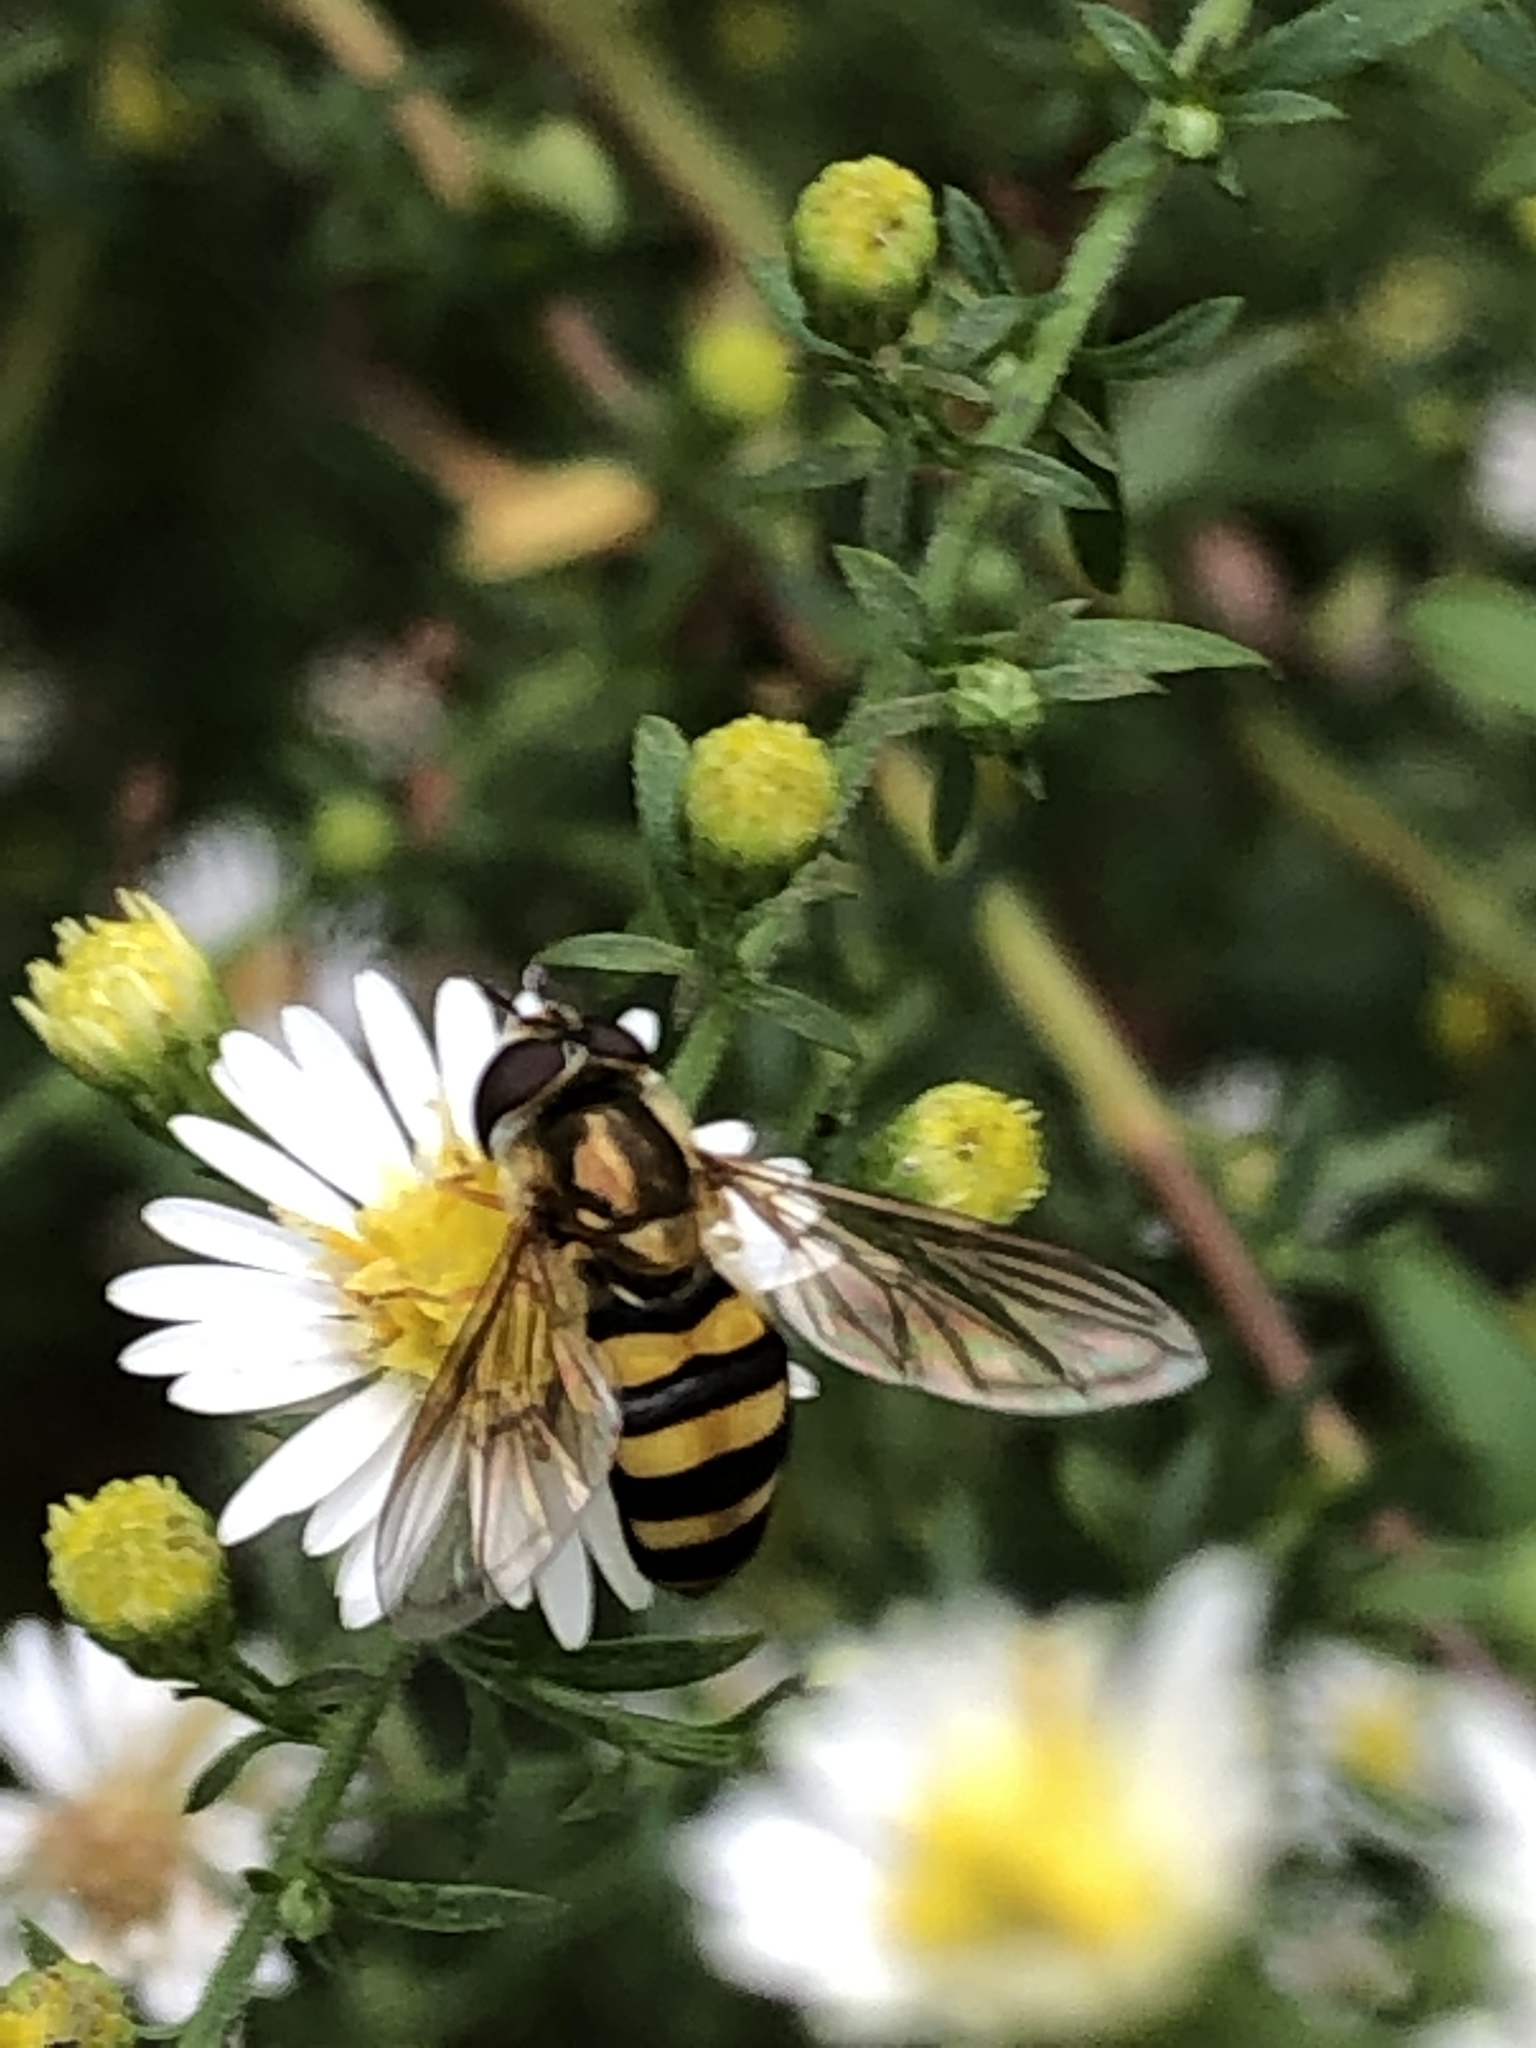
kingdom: Animalia
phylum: Arthropoda
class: Insecta
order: Diptera
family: Syrphidae
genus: Eupeodes
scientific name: Eupeodes
